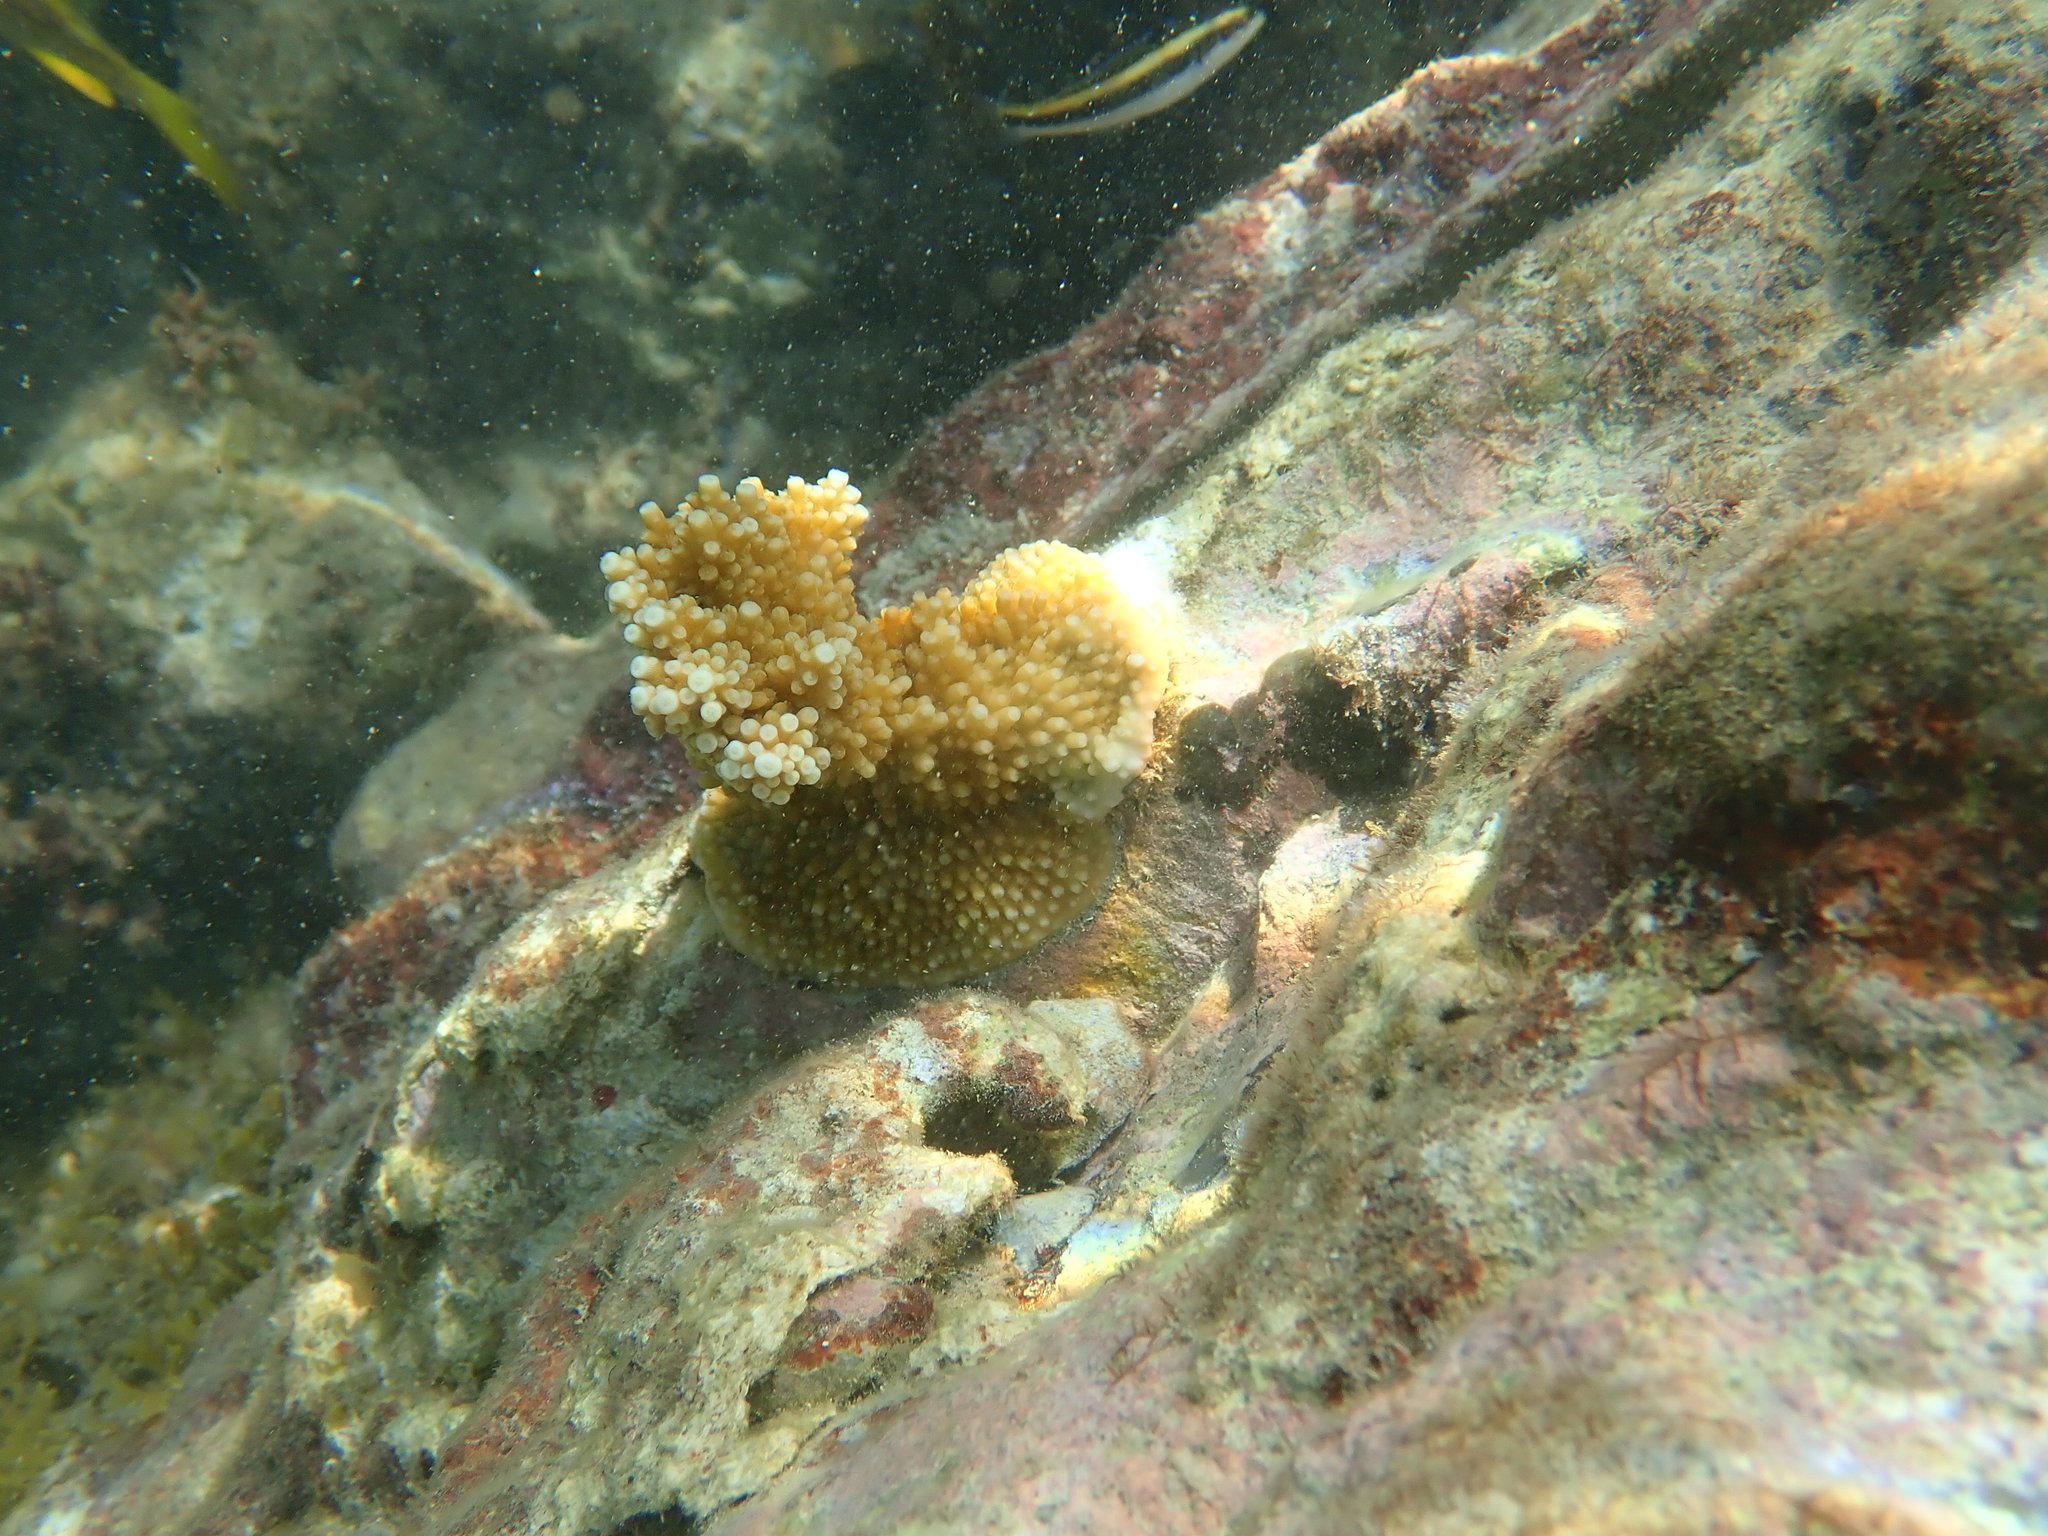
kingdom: Animalia
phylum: Cnidaria
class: Anthozoa
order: Scleractinia
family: Acroporidae
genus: Acropora
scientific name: Acropora palmata
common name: Elkhorn coral
